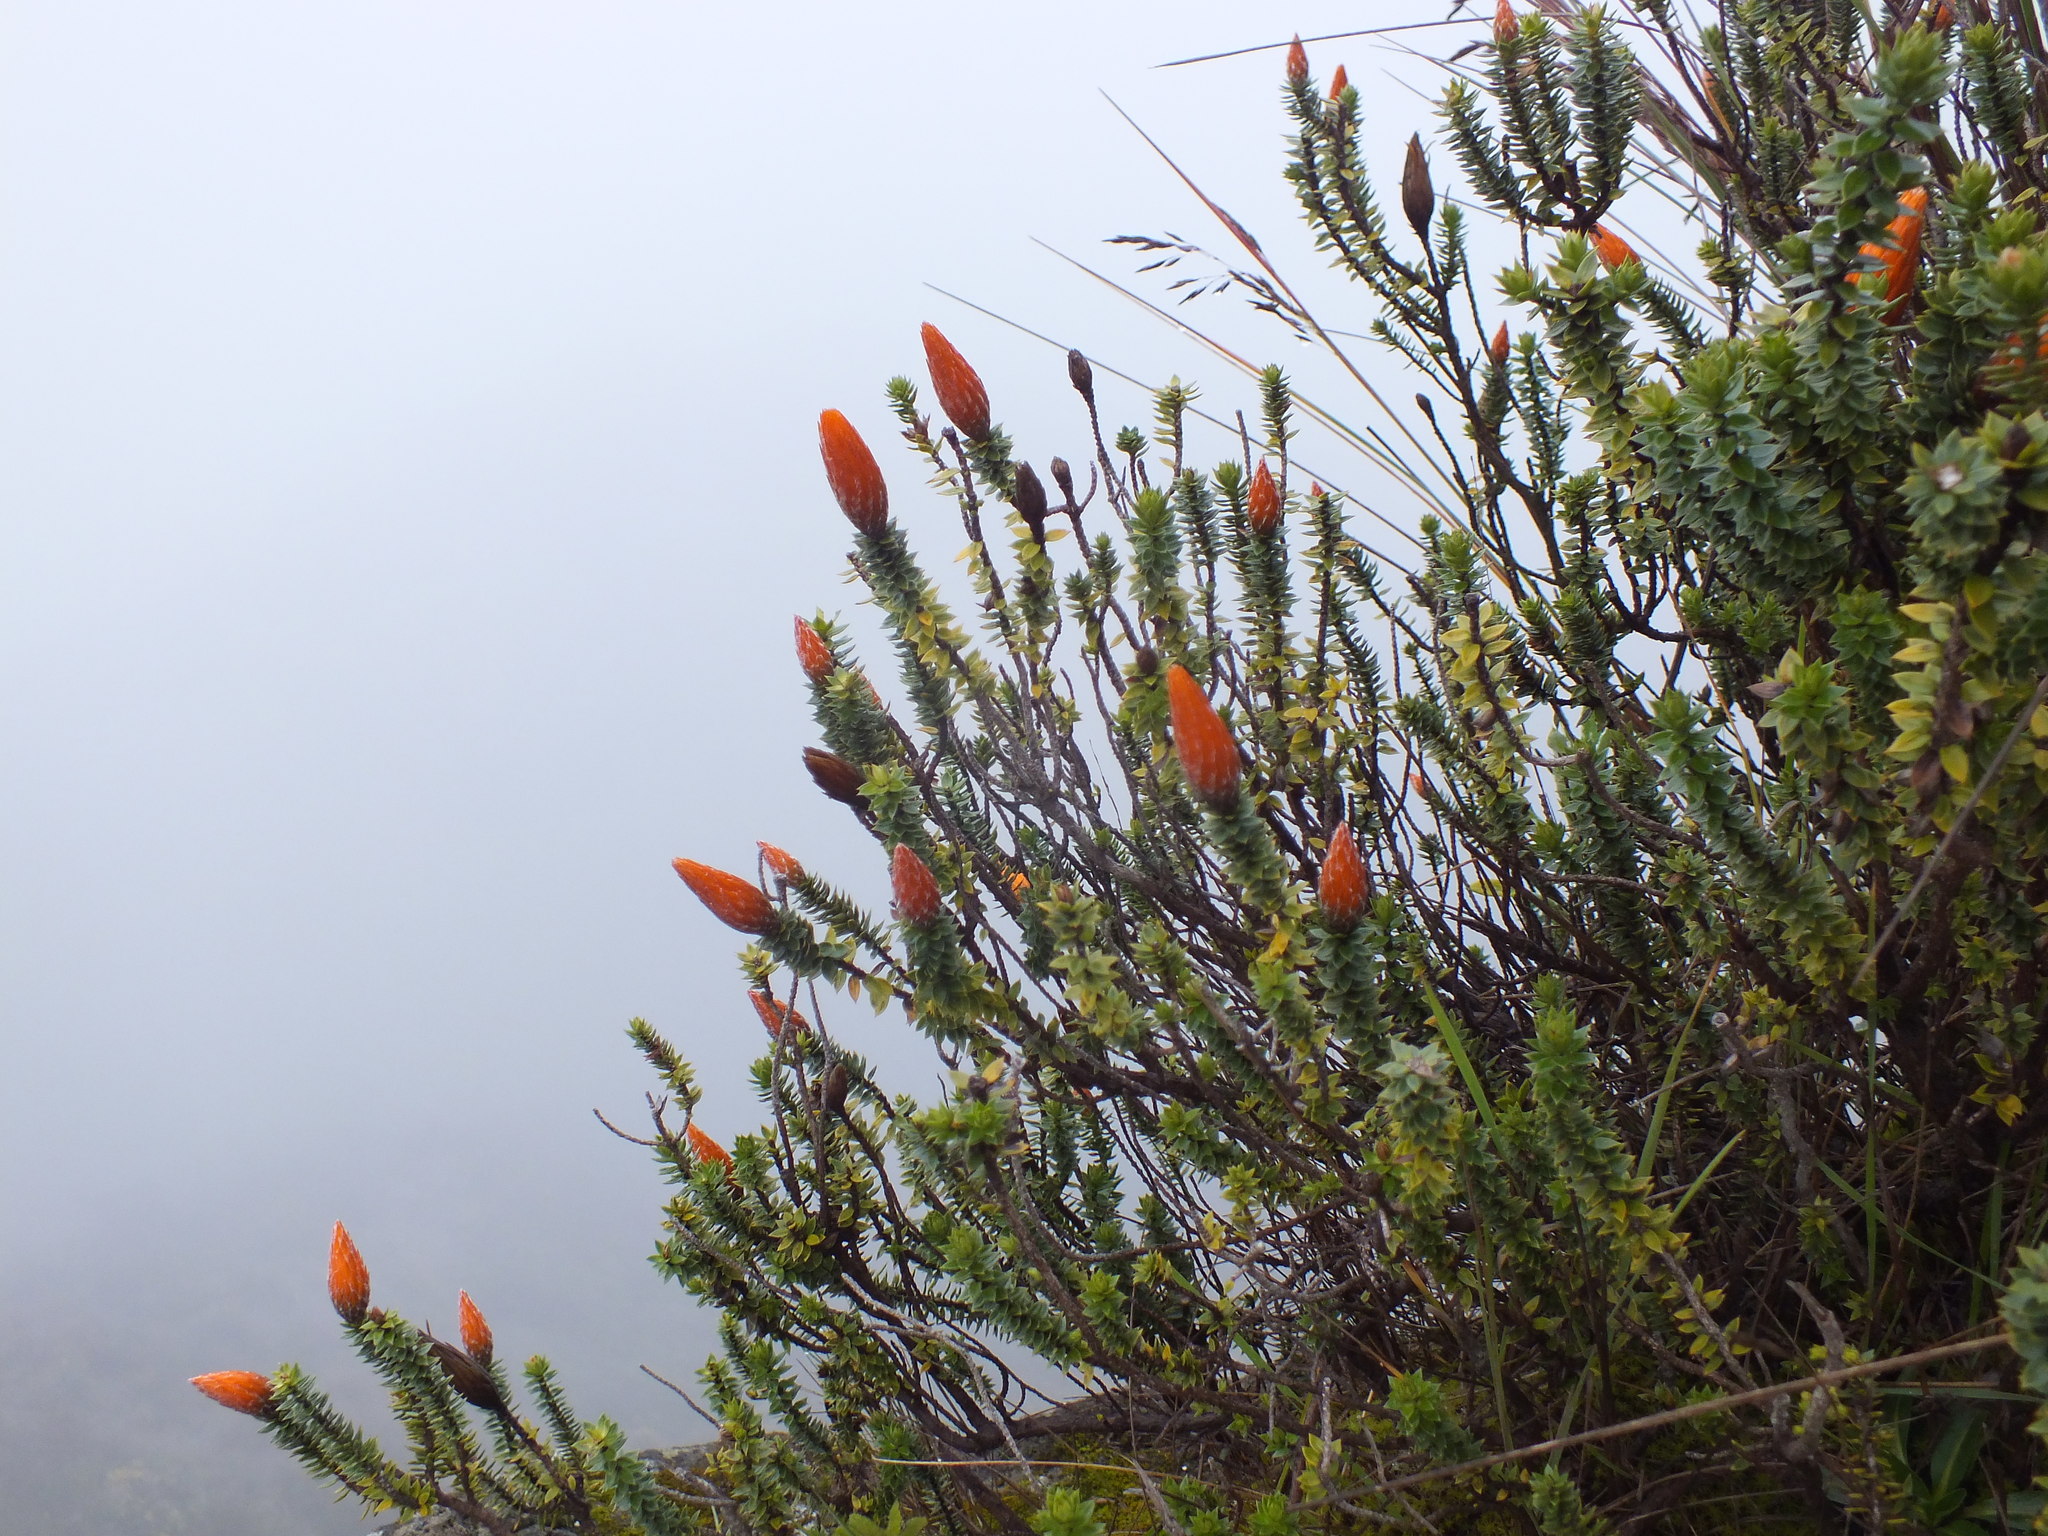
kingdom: Plantae
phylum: Tracheophyta
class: Magnoliopsida
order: Asterales
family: Asteraceae
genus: Chuquiraga
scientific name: Chuquiraga jussieui
